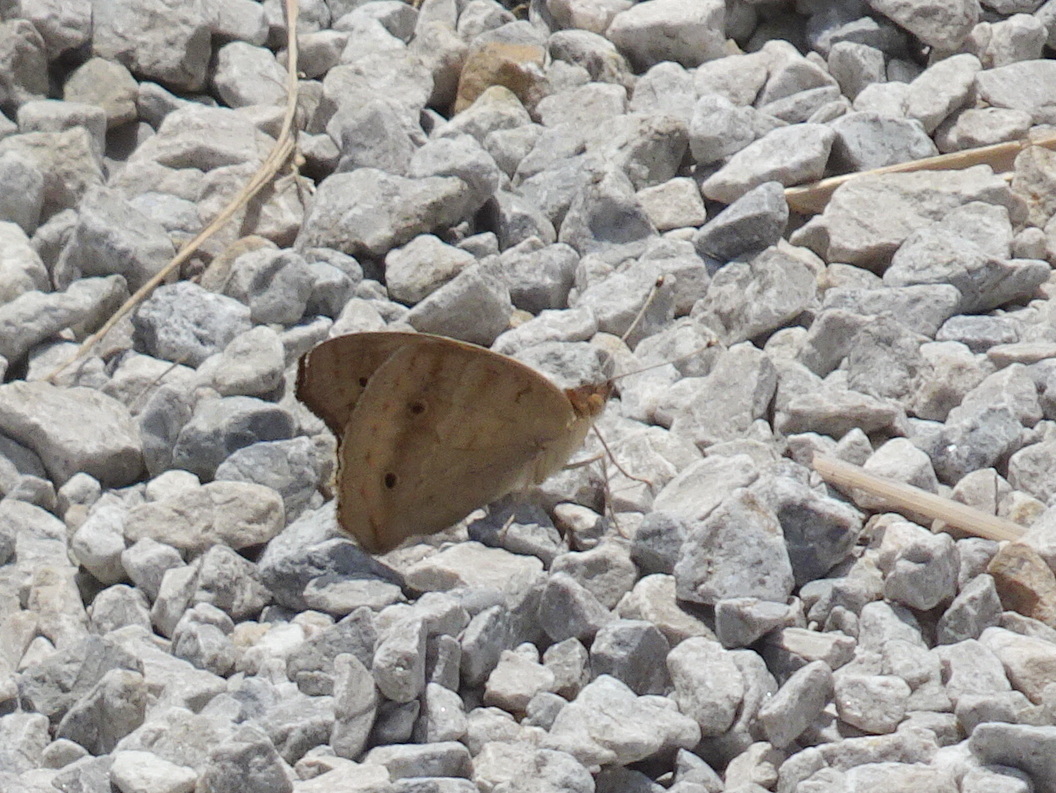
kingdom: Animalia
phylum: Arthropoda
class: Insecta
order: Lepidoptera
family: Nymphalidae
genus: Junonia
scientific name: Junonia coenia
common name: Common buckeye
